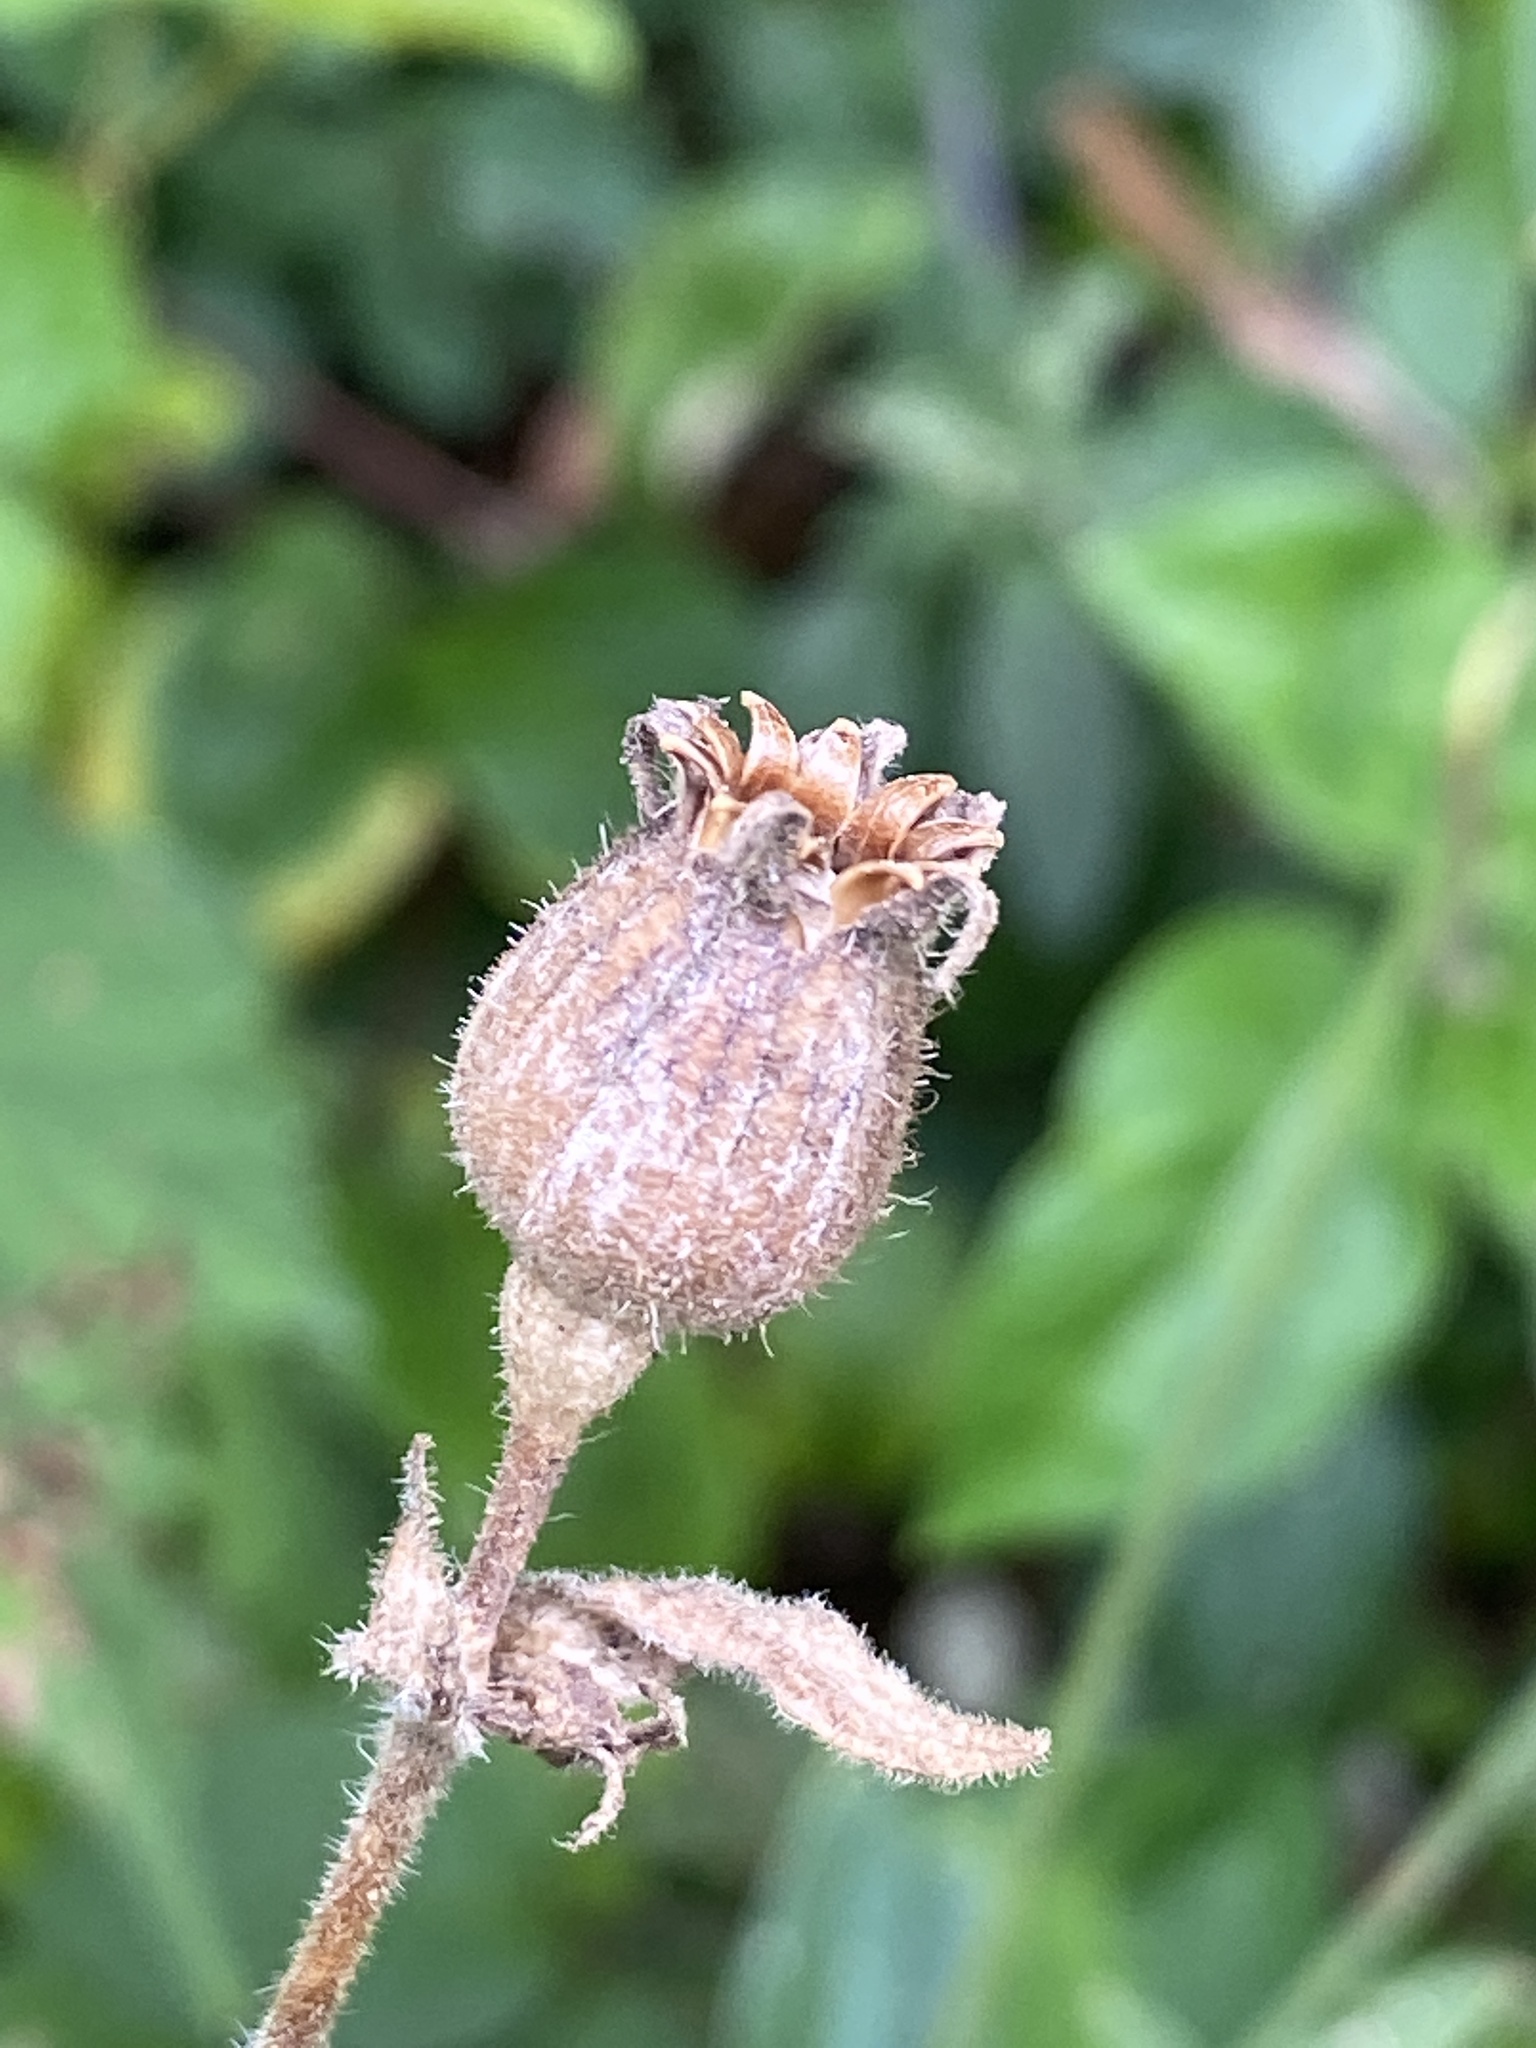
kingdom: Plantae
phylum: Tracheophyta
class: Magnoliopsida
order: Caryophyllales
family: Caryophyllaceae
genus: Silene
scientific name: Silene latifolia
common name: White campion
